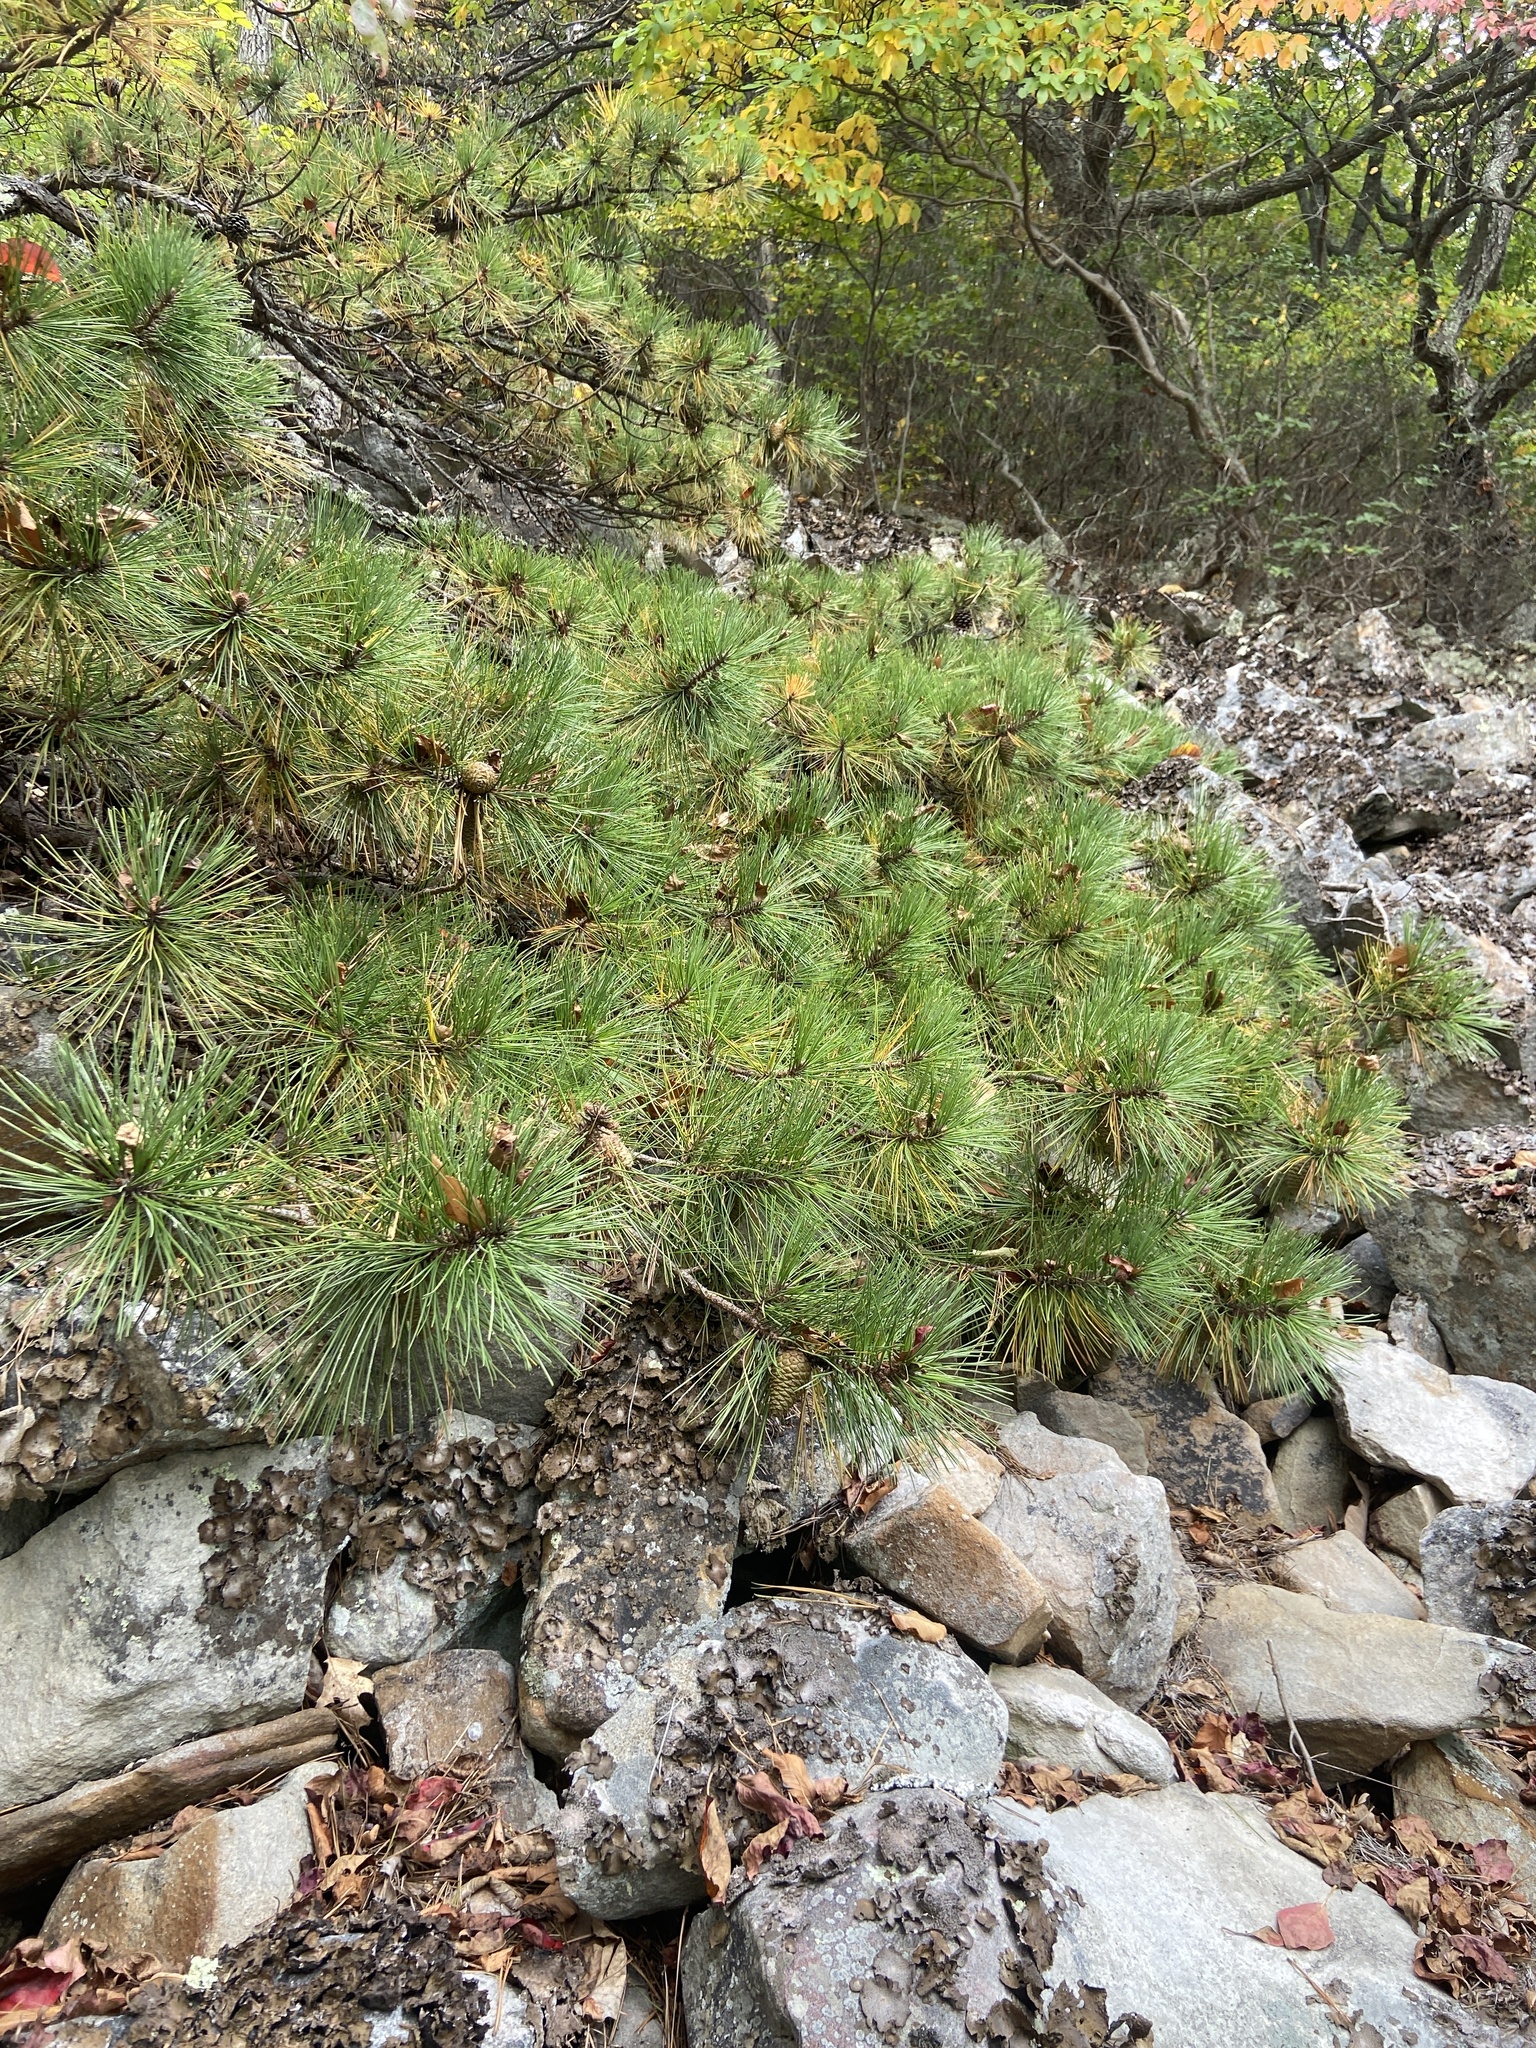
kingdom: Plantae
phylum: Tracheophyta
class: Pinopsida
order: Pinales
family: Pinaceae
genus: Pinus
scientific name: Pinus rigida
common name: Pitch pine
